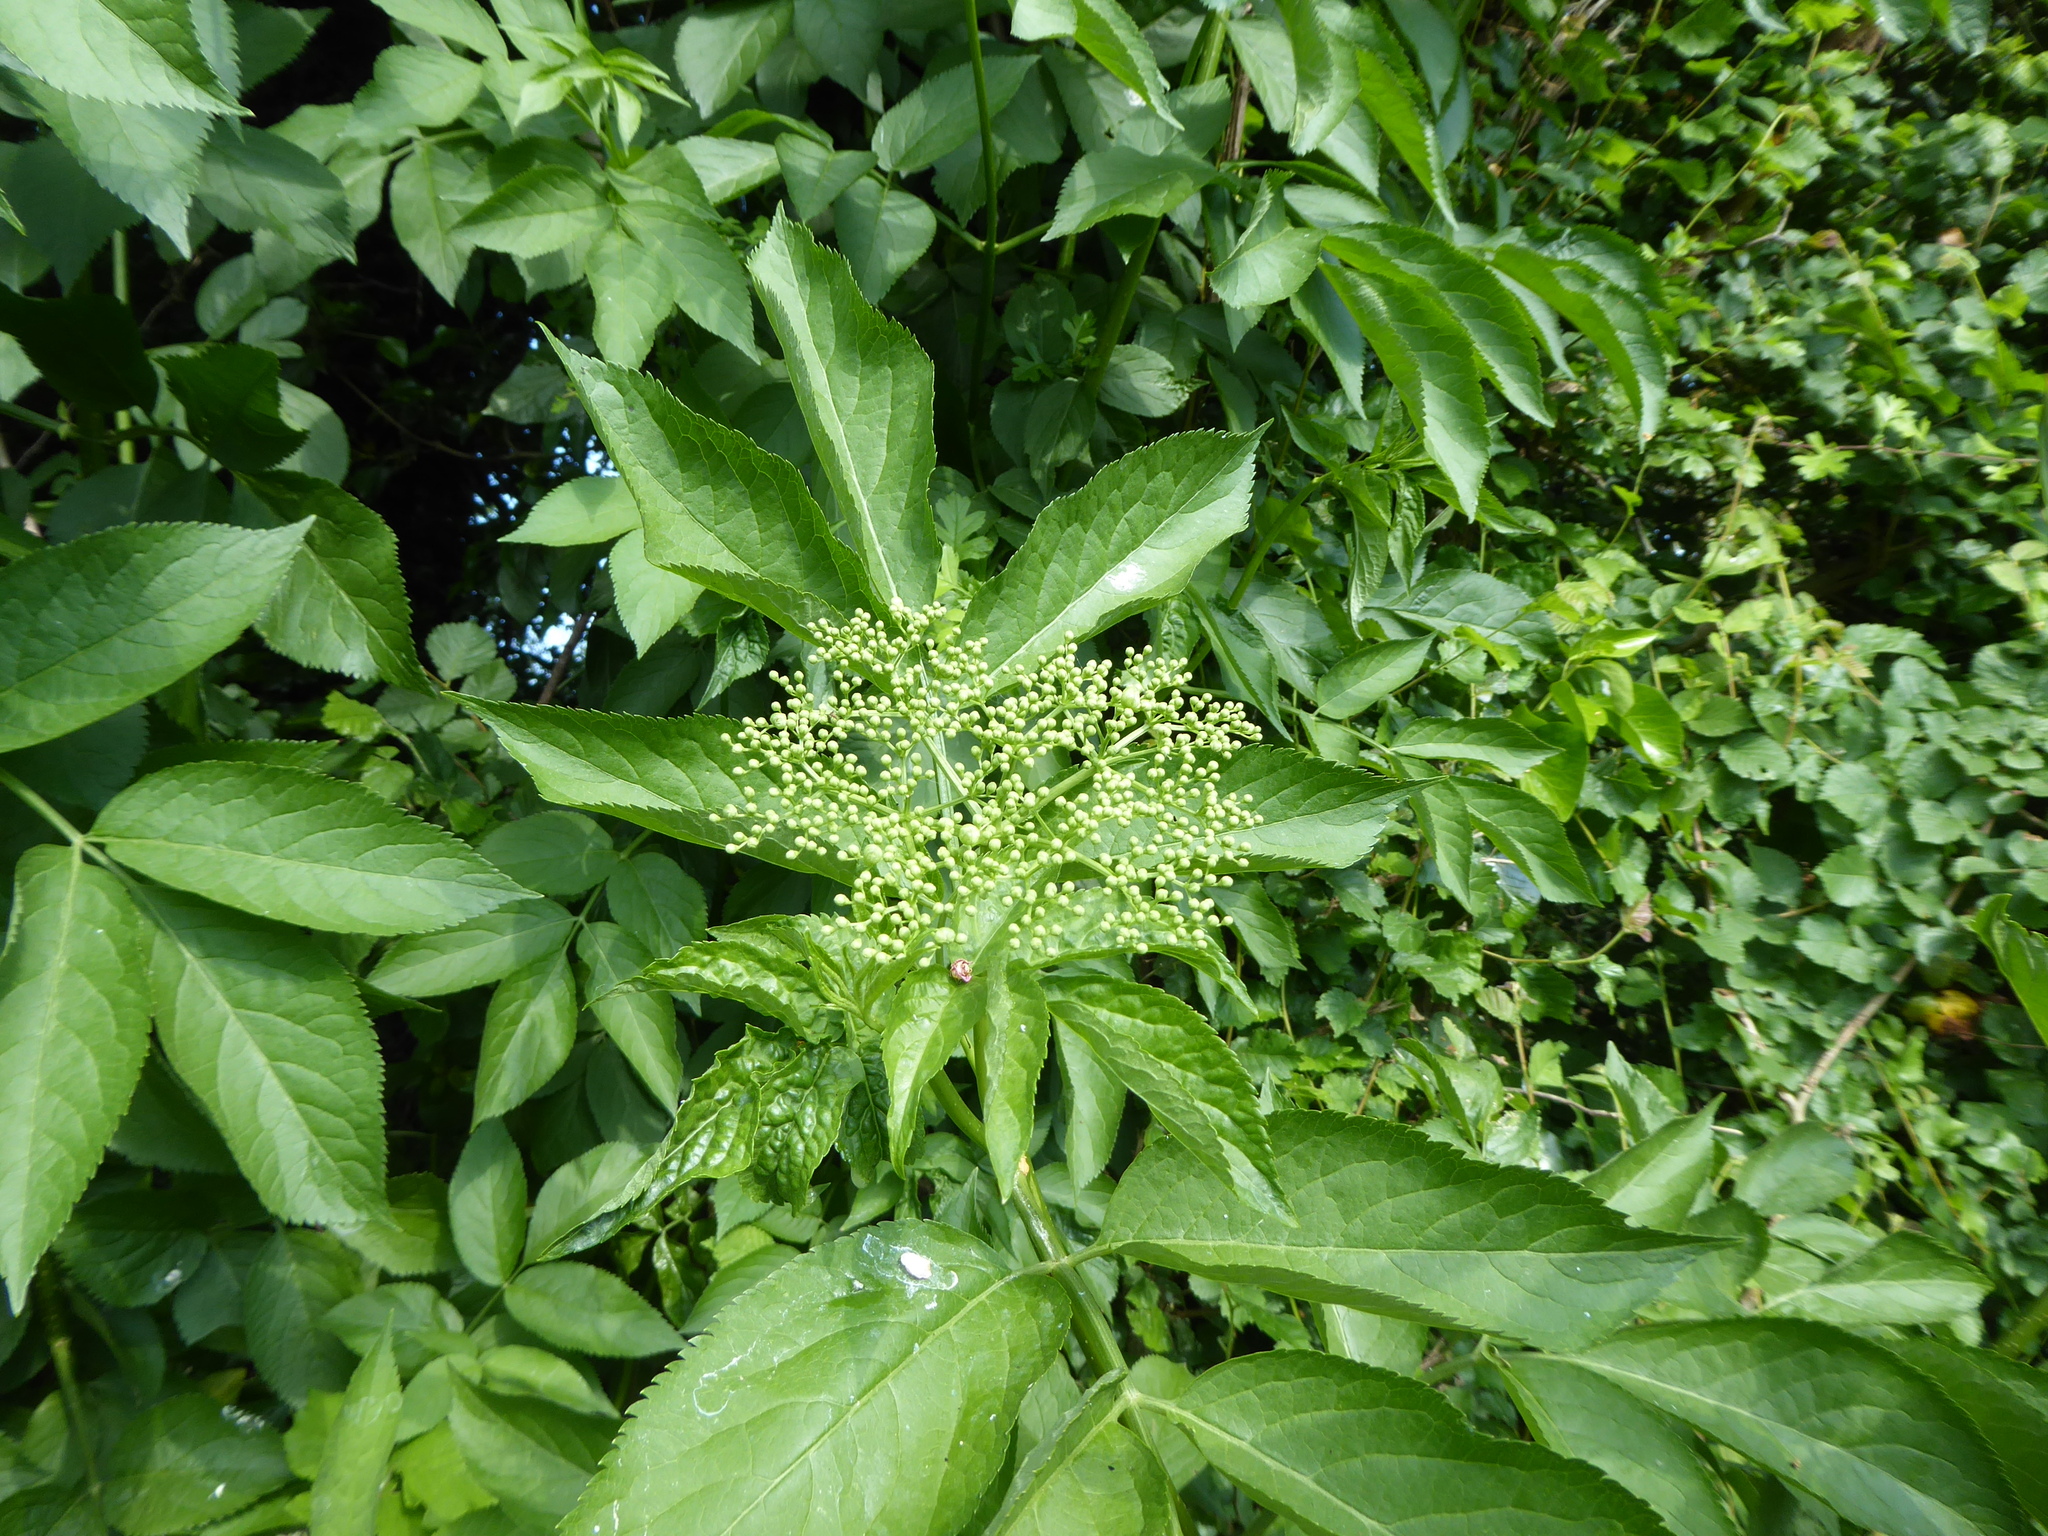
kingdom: Plantae
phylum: Tracheophyta
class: Magnoliopsida
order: Dipsacales
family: Viburnaceae
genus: Sambucus
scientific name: Sambucus nigra
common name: Elder
